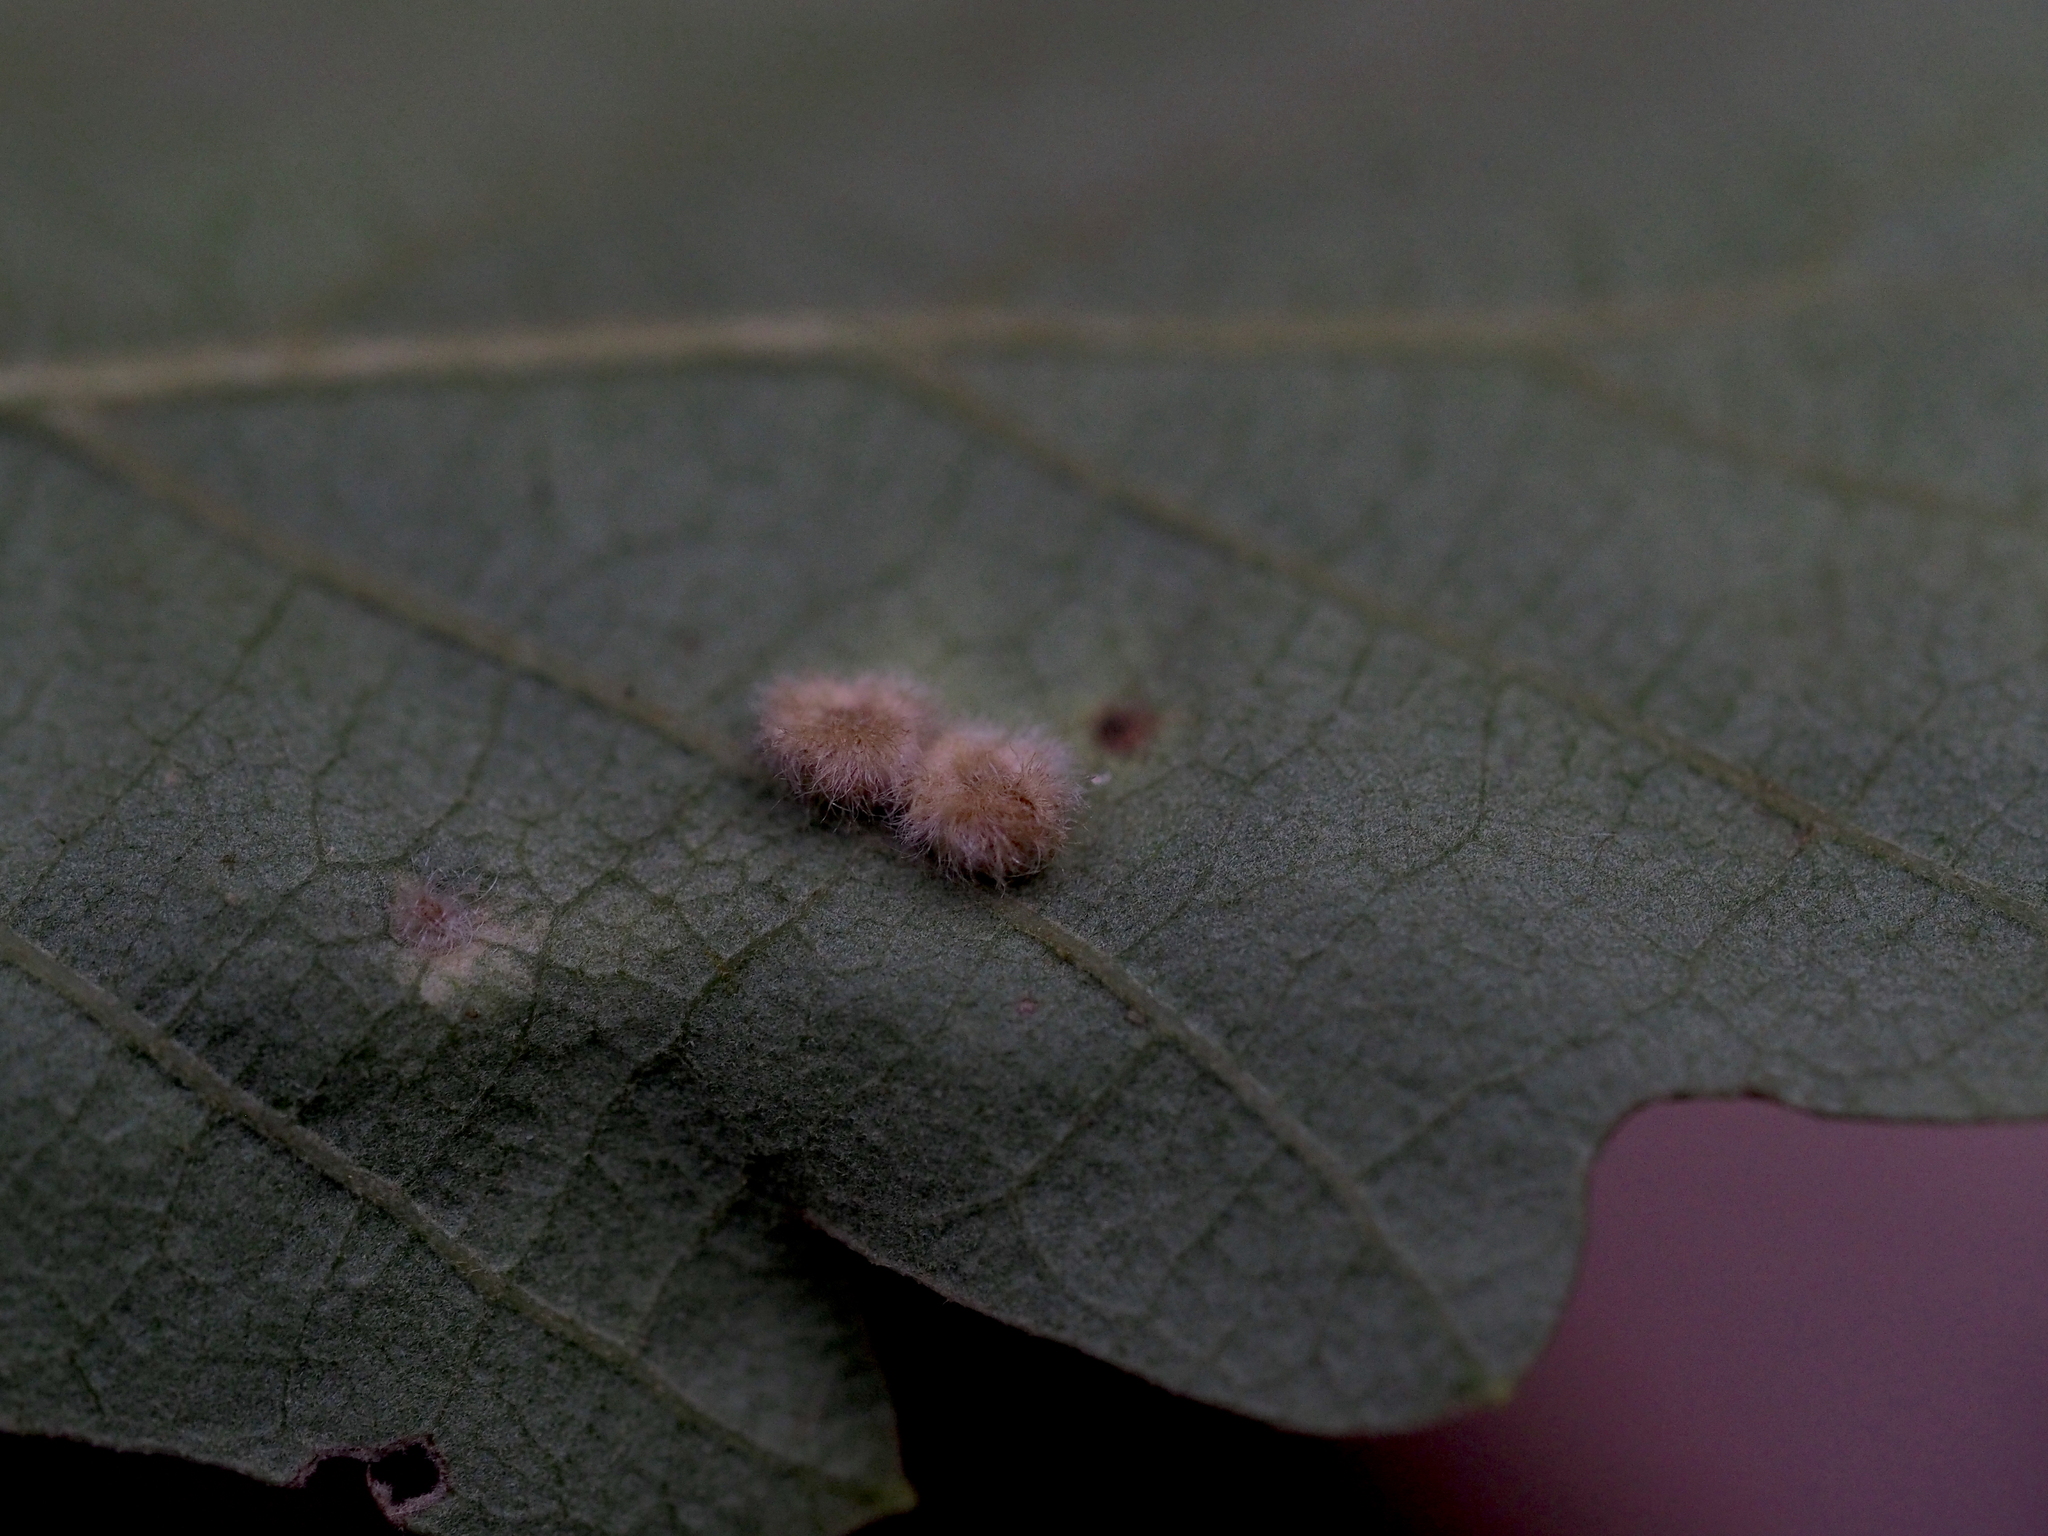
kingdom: Animalia
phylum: Arthropoda
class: Insecta
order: Hymenoptera
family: Cynipidae
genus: Neuroterus
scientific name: Neuroterus lanuginosus
